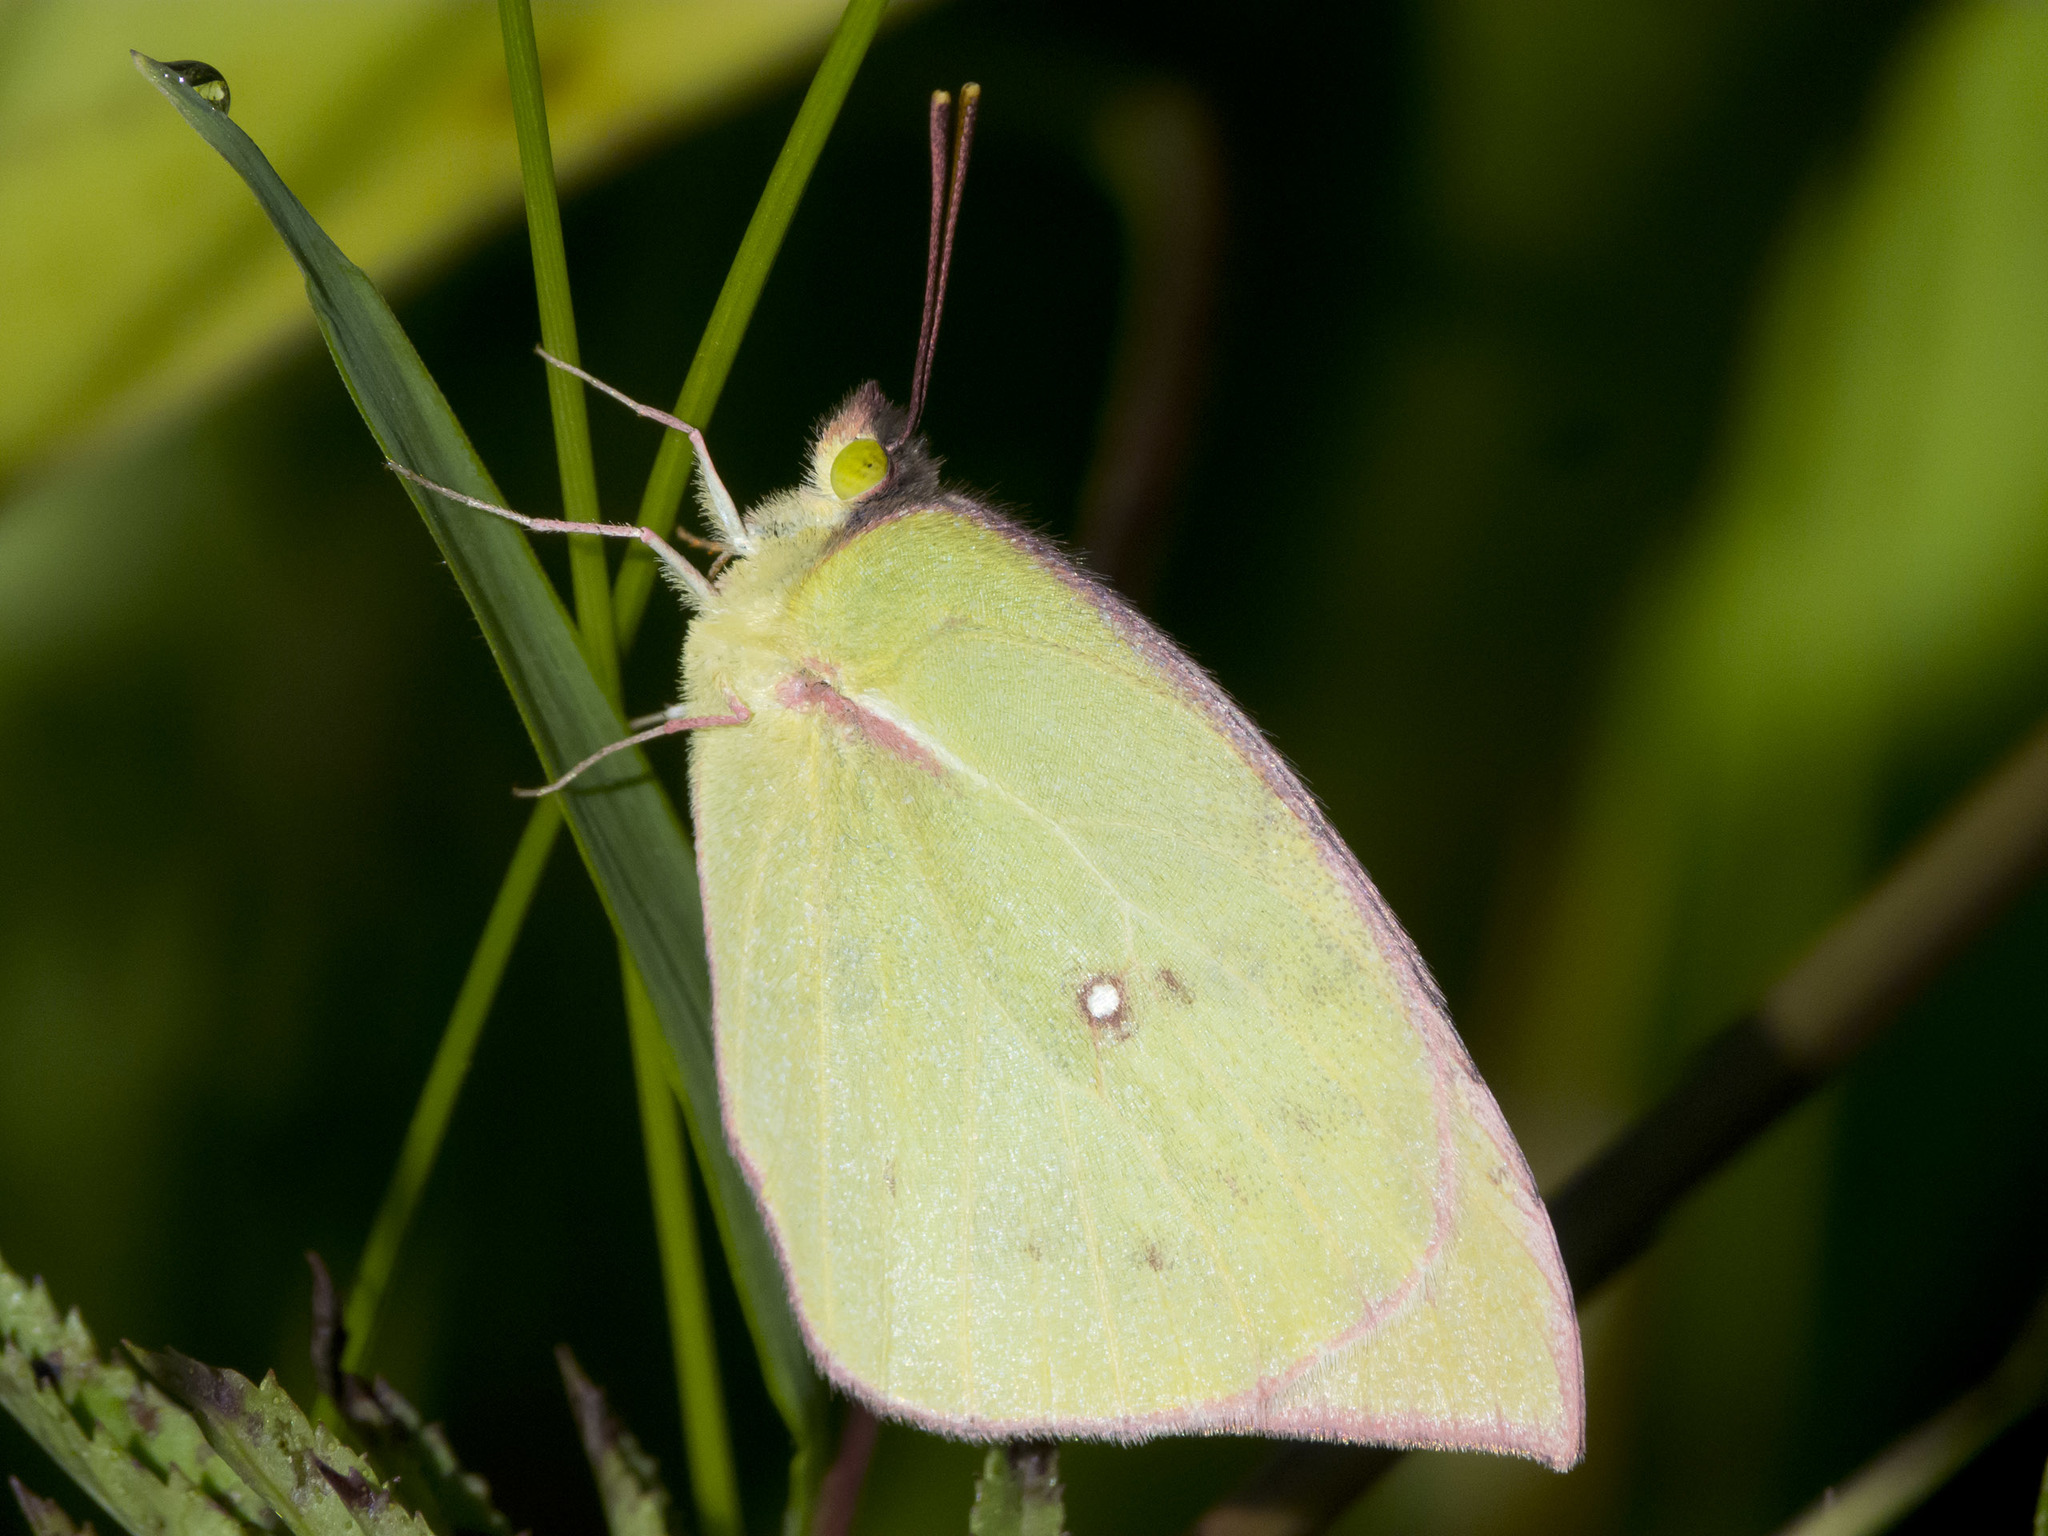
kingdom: Animalia
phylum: Arthropoda
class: Insecta
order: Lepidoptera
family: Pieridae
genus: Zerene
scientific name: Zerene cesonia
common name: Southern dogface
